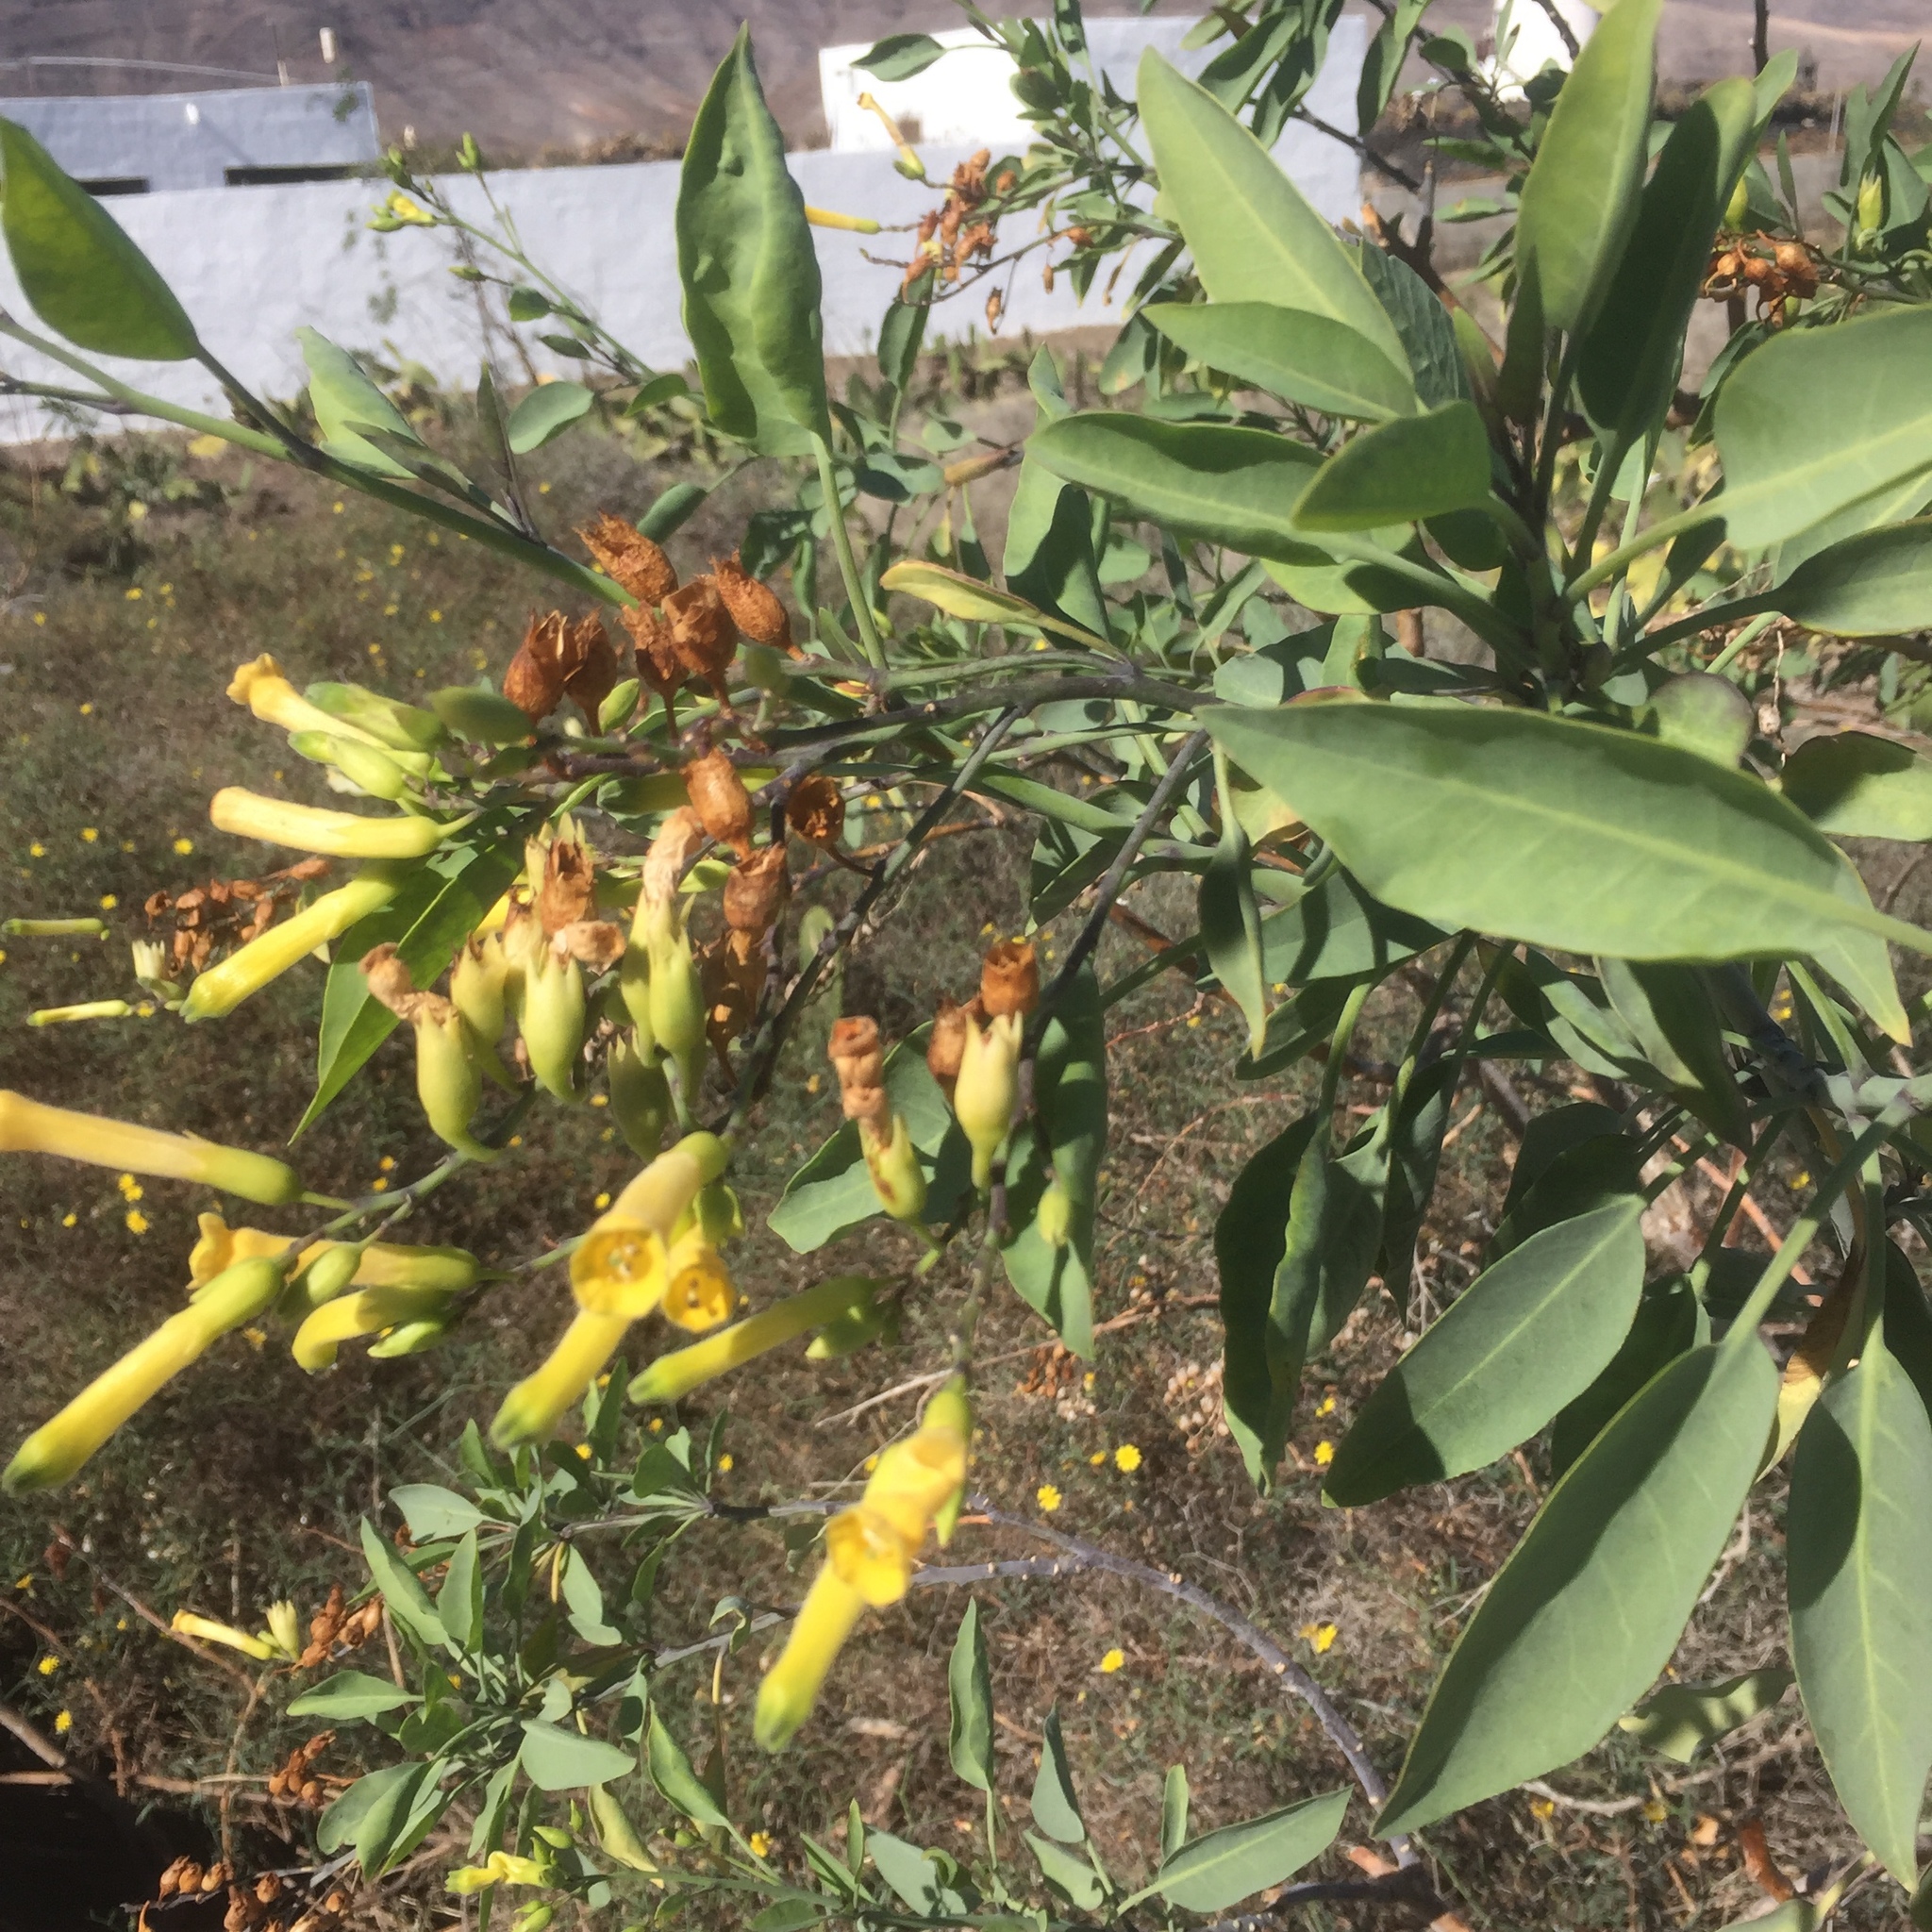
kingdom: Plantae
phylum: Tracheophyta
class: Magnoliopsida
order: Solanales
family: Solanaceae
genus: Nicotiana
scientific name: Nicotiana glauca
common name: Tree tobacco
